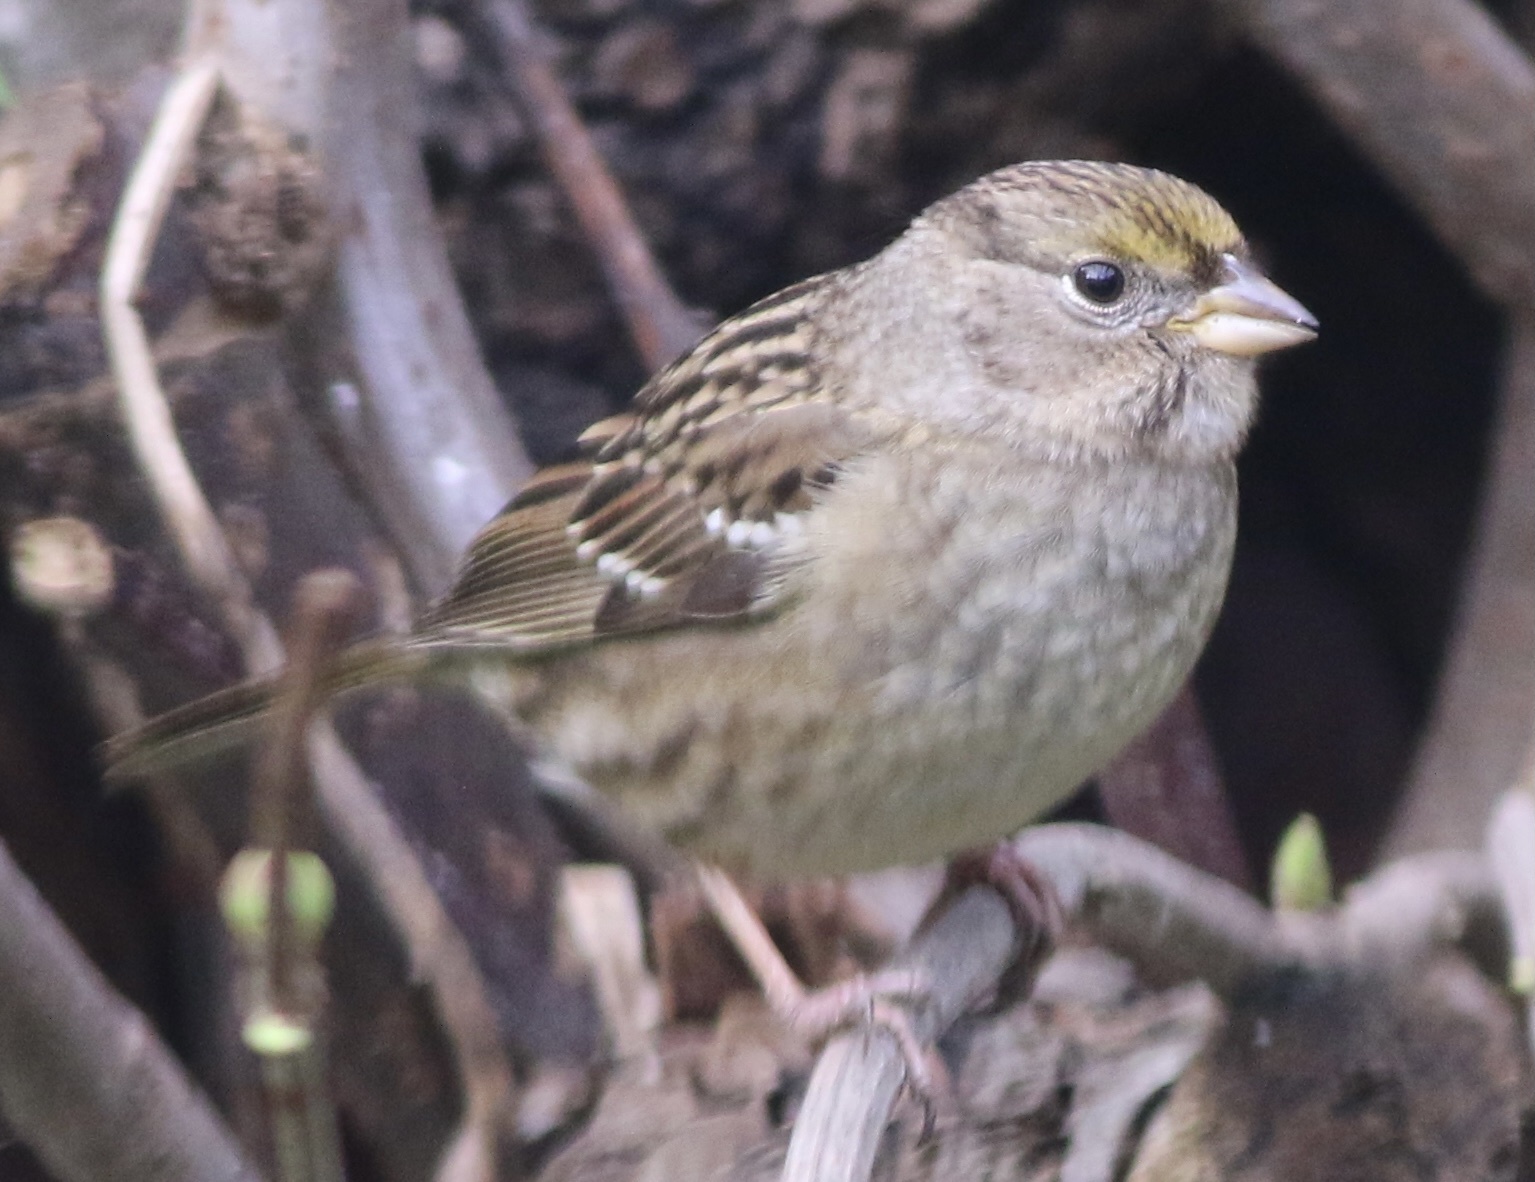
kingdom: Animalia
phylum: Chordata
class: Aves
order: Passeriformes
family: Passerellidae
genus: Zonotrichia
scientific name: Zonotrichia atricapilla
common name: Golden-crowned sparrow
